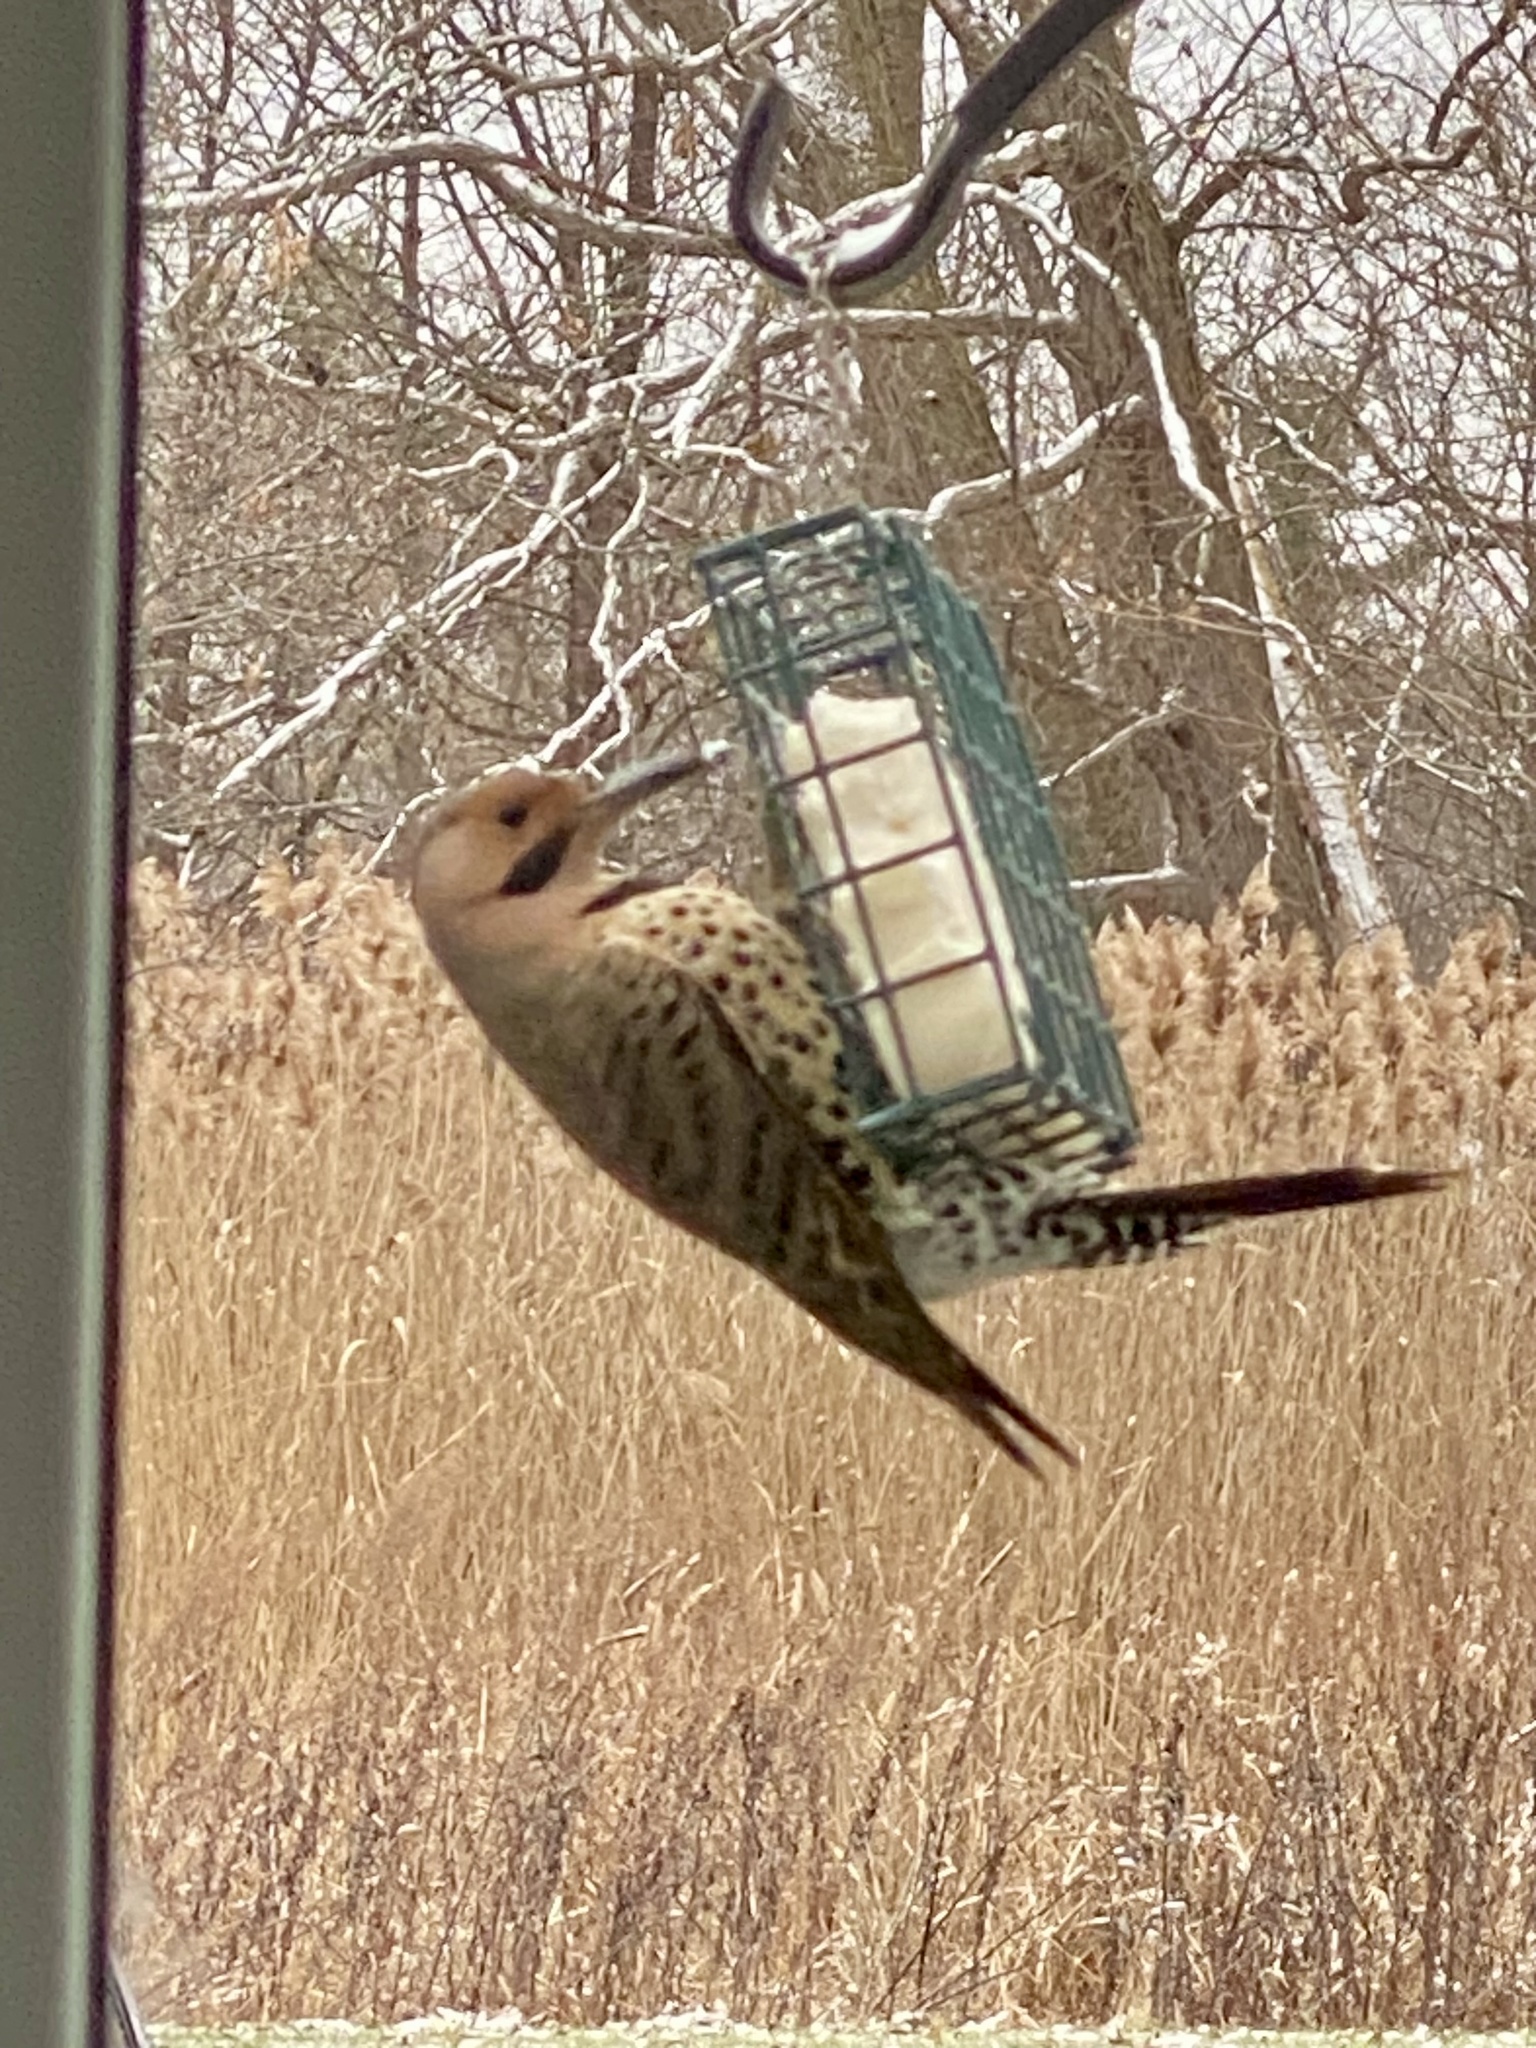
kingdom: Animalia
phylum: Chordata
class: Aves
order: Piciformes
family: Picidae
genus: Colaptes
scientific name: Colaptes auratus
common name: Northern flicker
